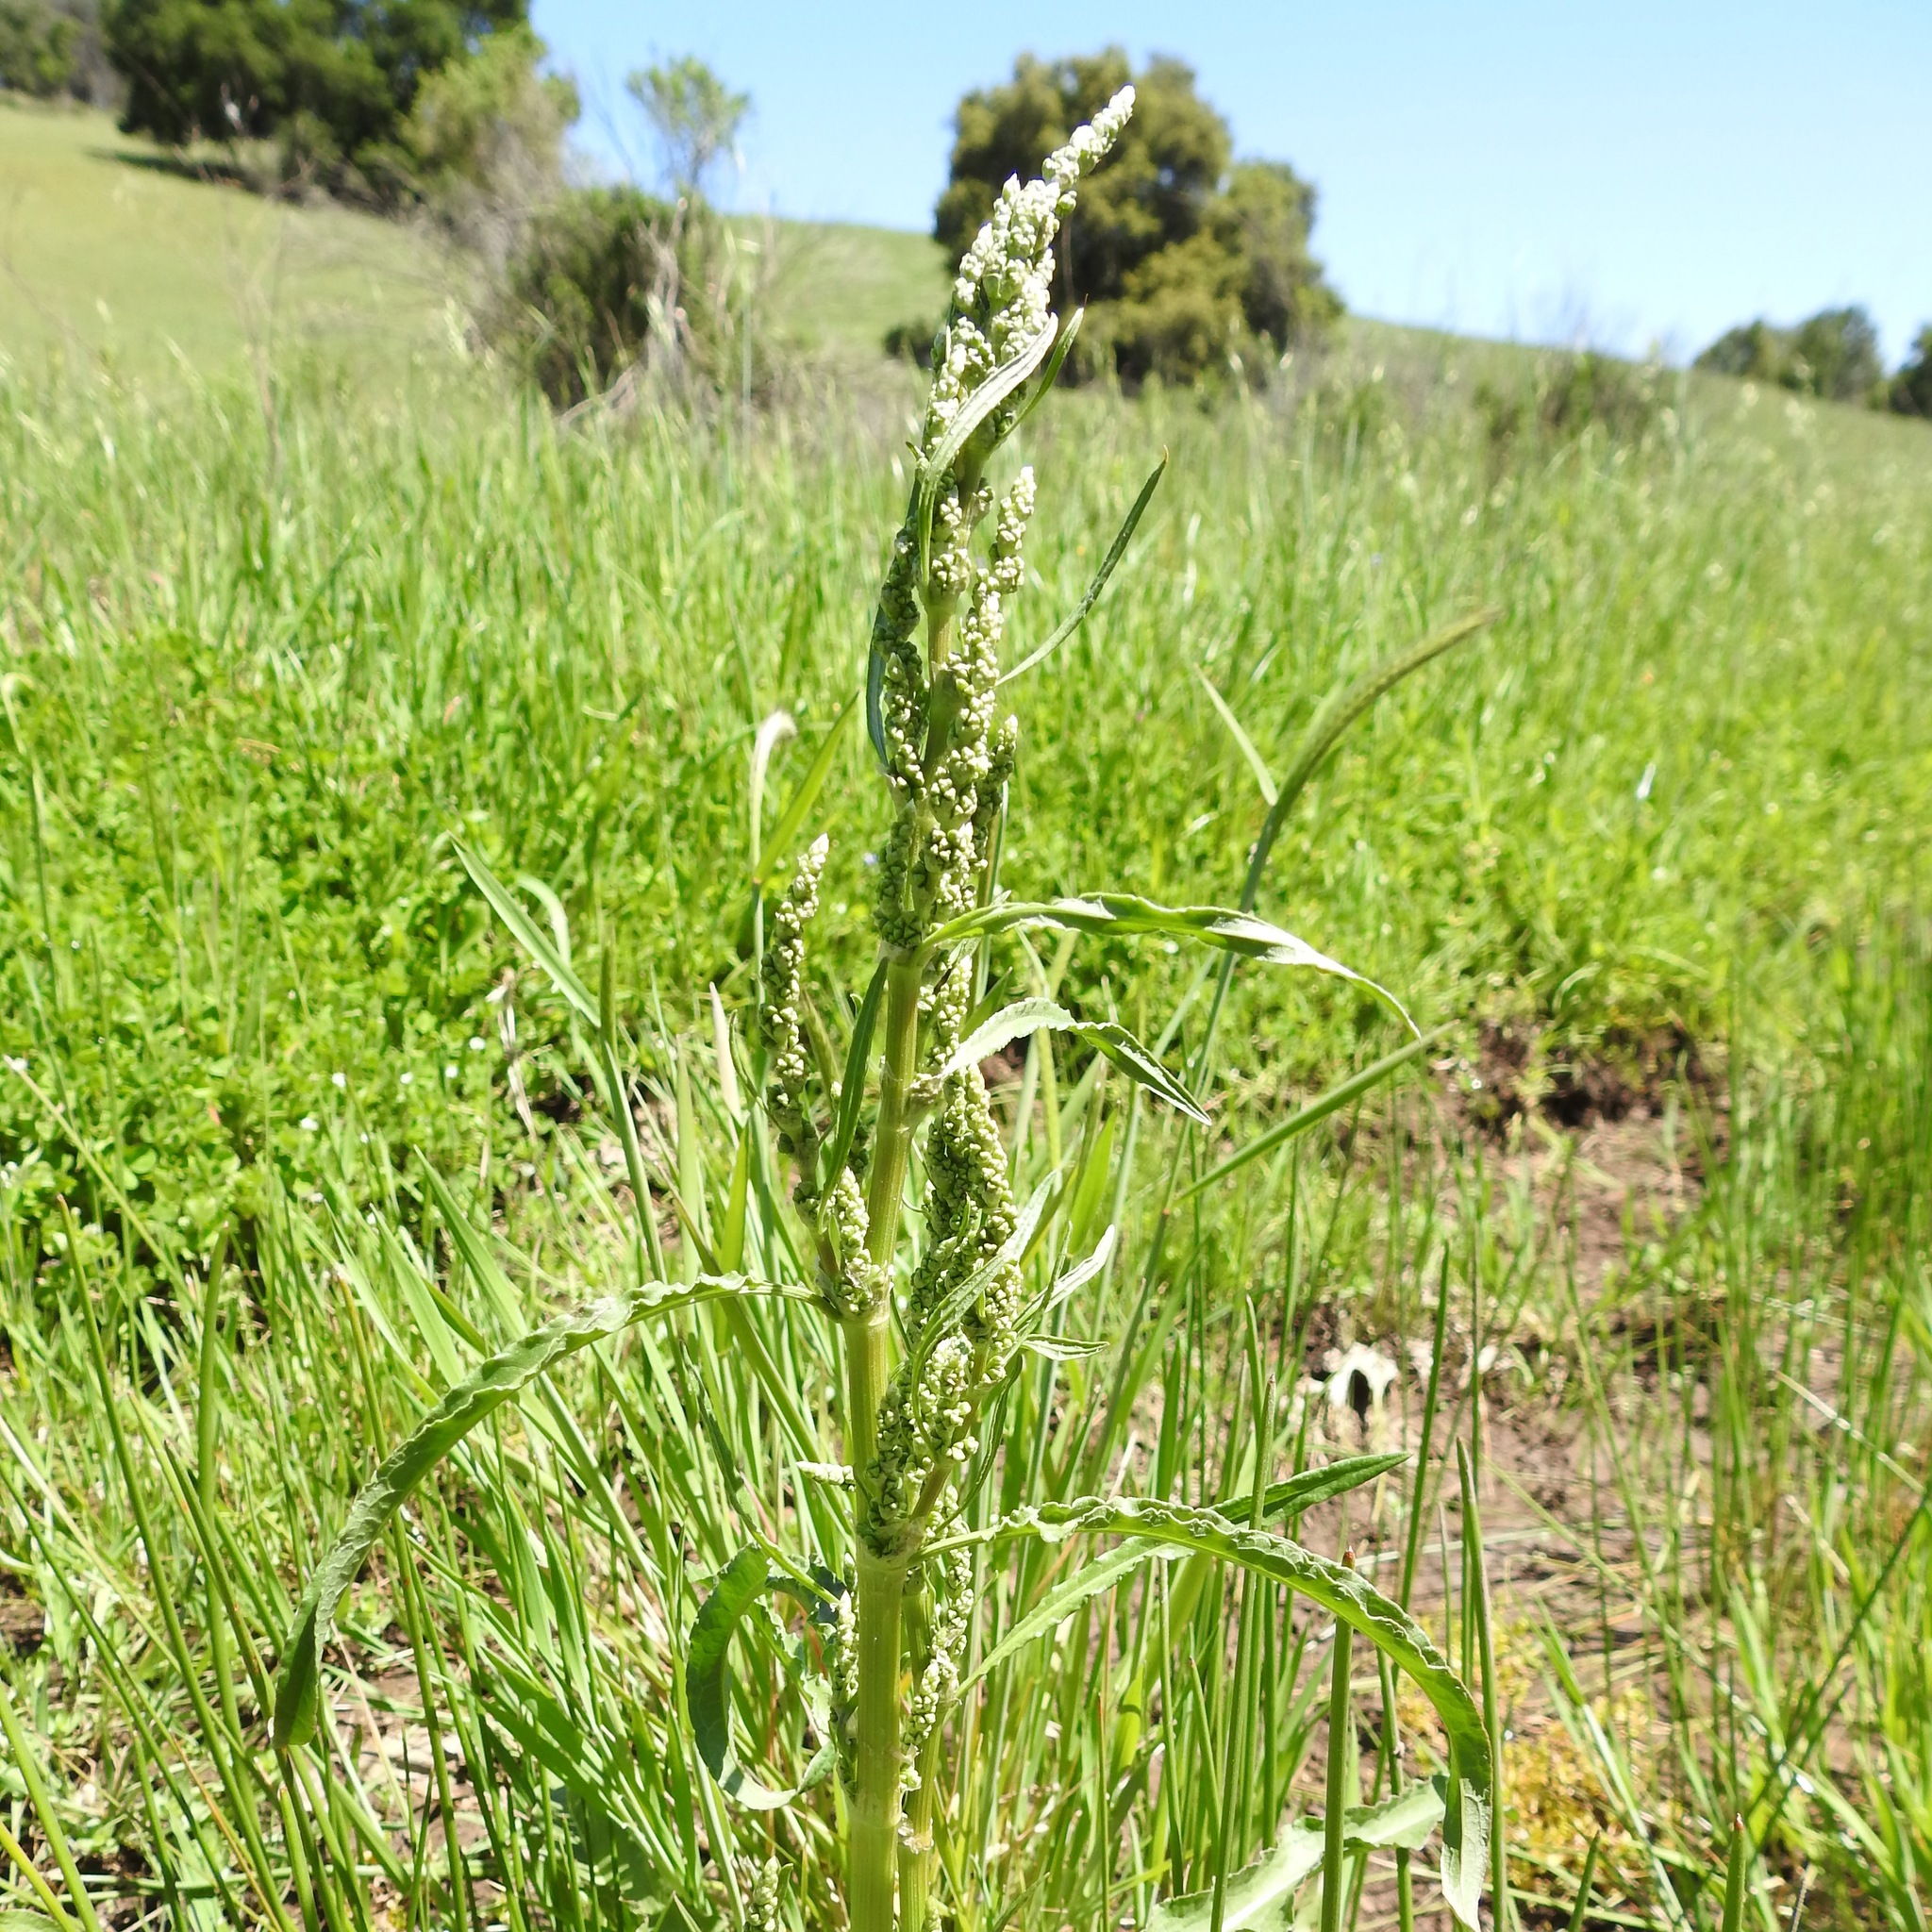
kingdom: Plantae
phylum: Tracheophyta
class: Magnoliopsida
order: Caryophyllales
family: Polygonaceae
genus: Rumex
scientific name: Rumex crispus
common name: Curled dock
